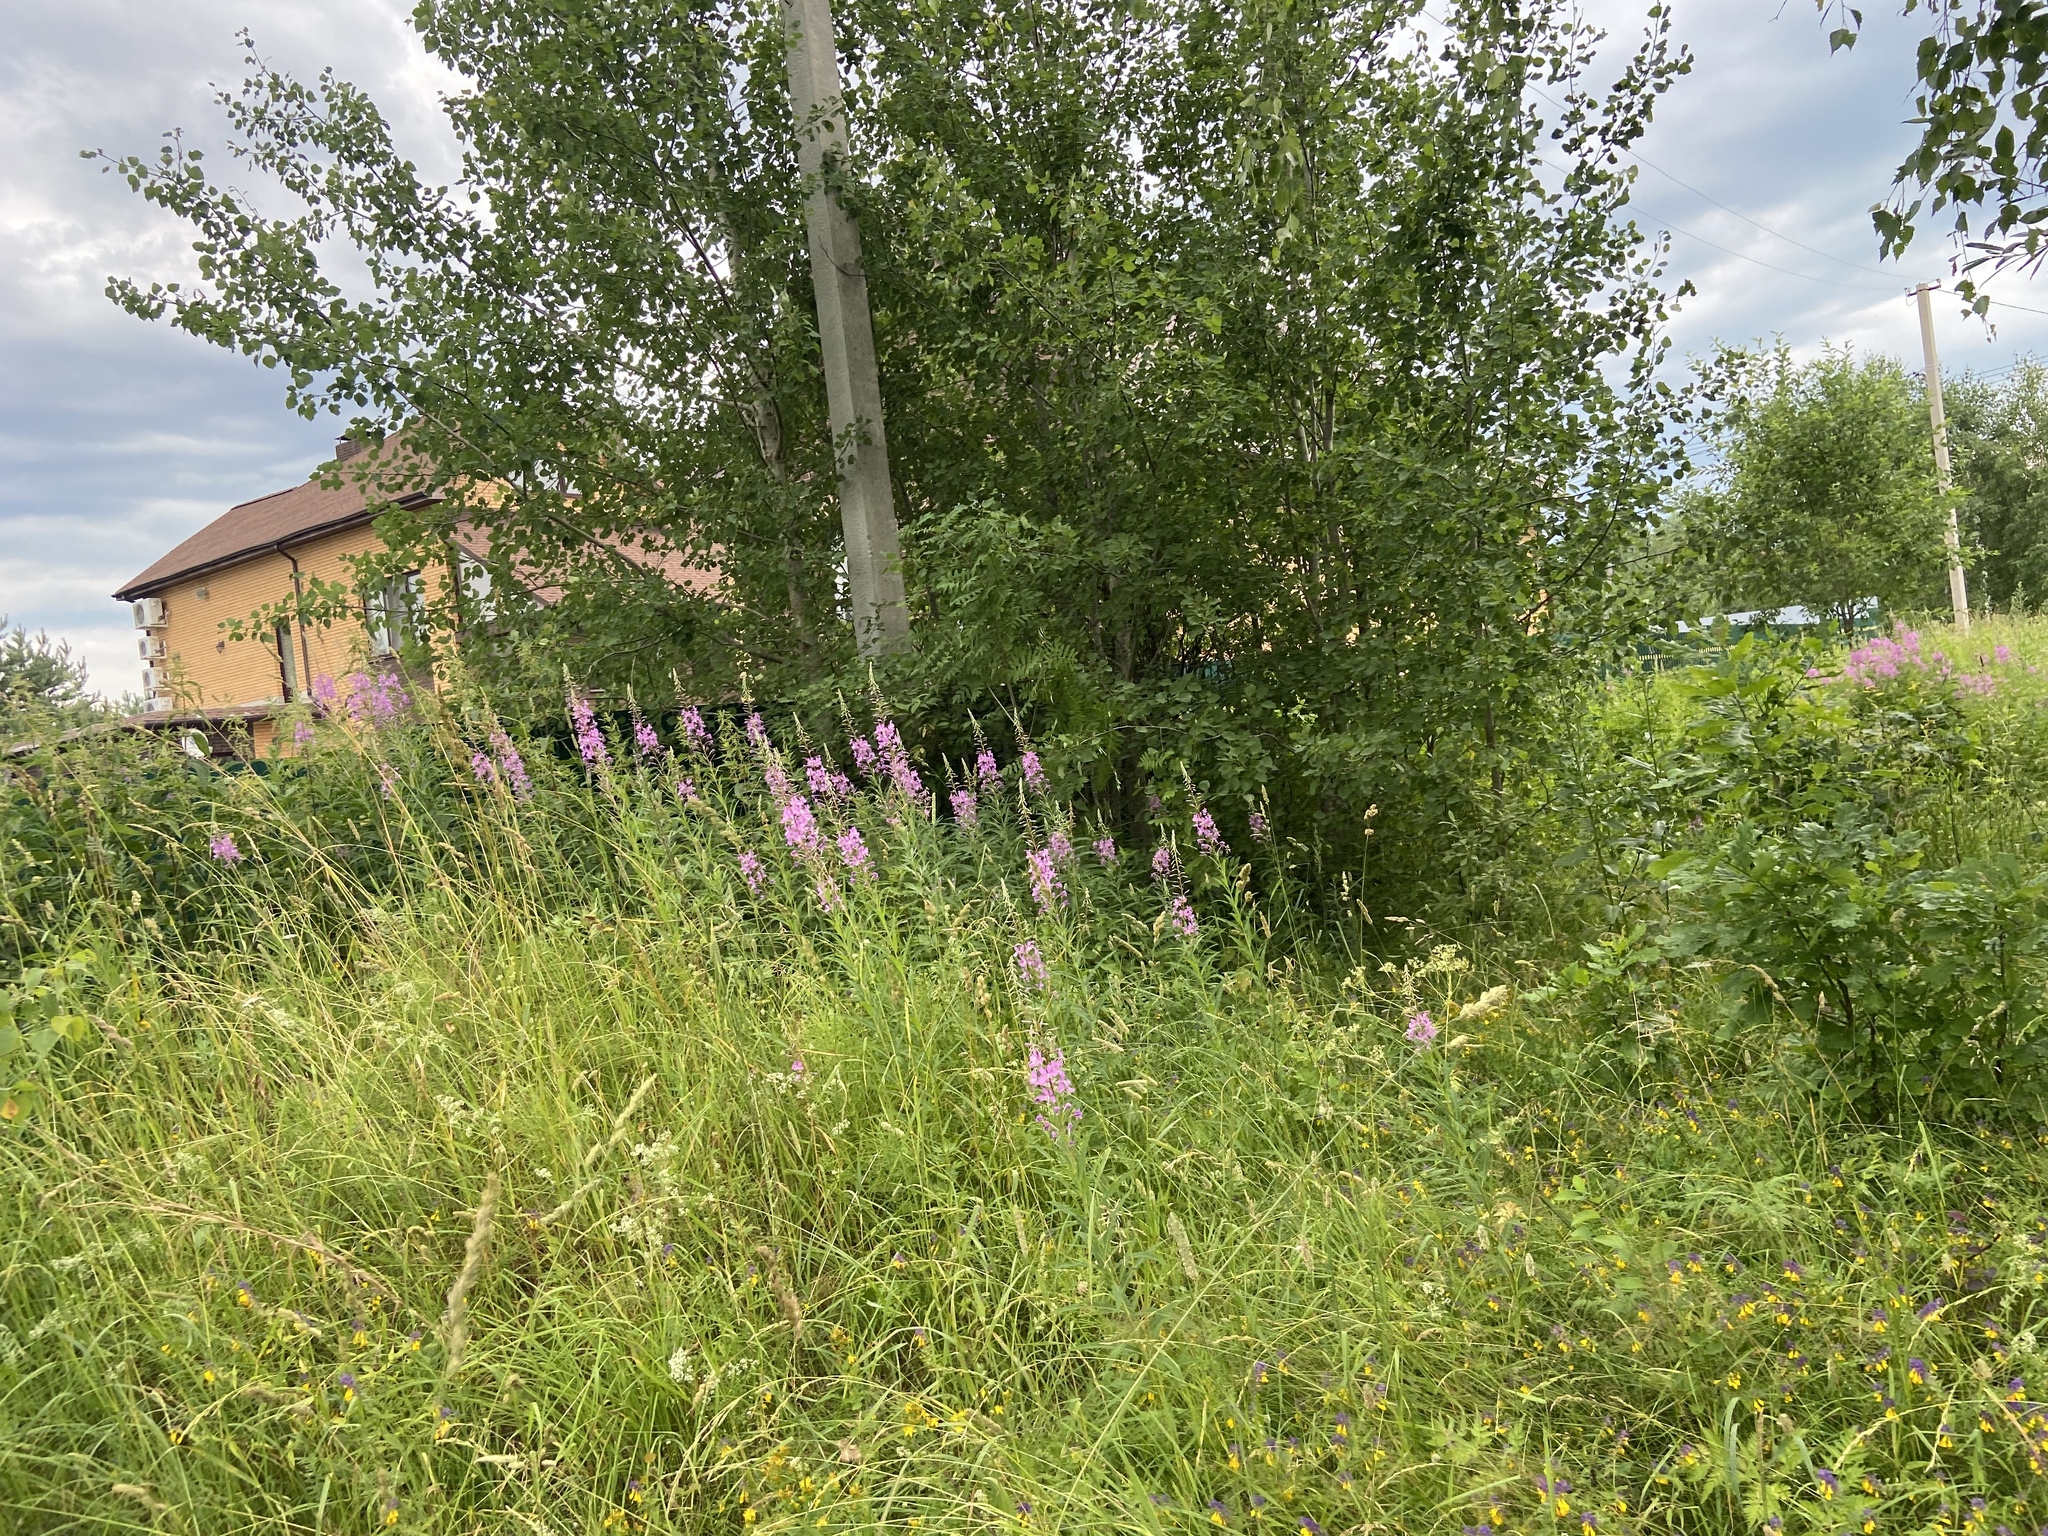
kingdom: Plantae
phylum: Tracheophyta
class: Magnoliopsida
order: Myrtales
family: Onagraceae
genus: Chamaenerion
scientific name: Chamaenerion angustifolium
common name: Fireweed
